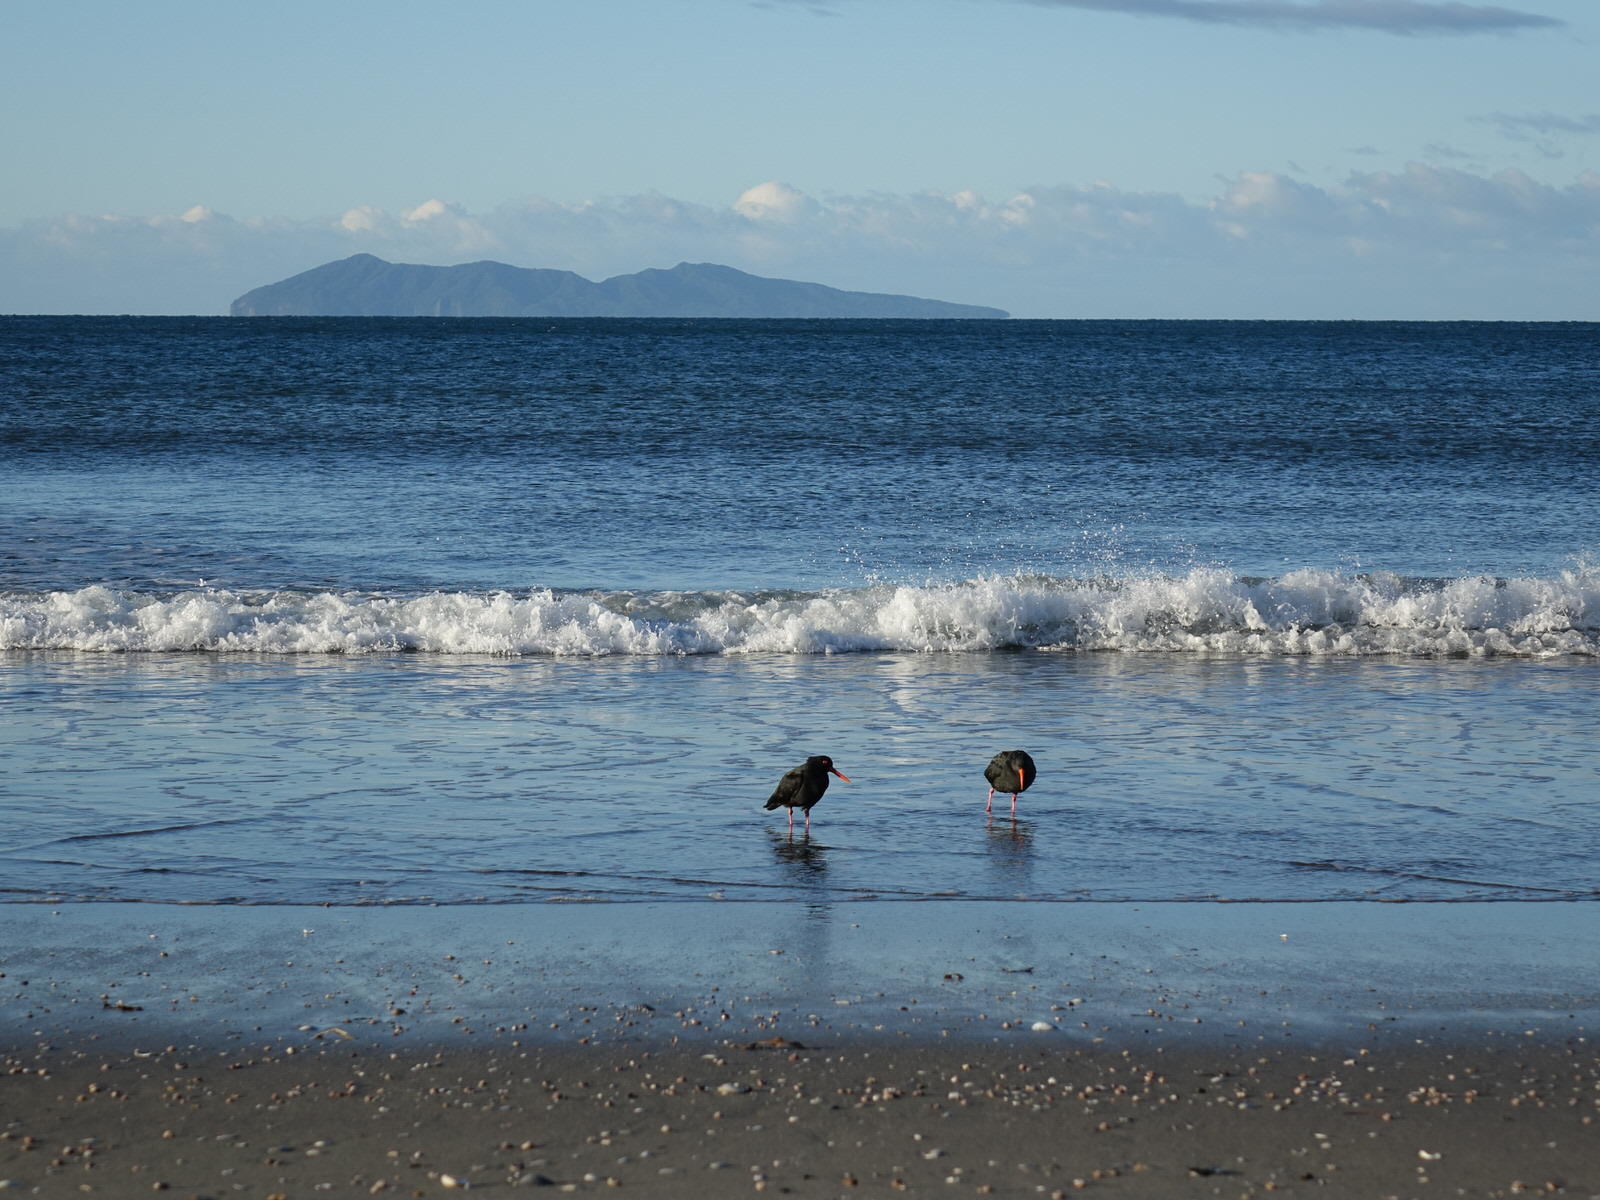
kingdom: Animalia
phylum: Chordata
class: Aves
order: Charadriiformes
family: Haematopodidae
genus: Haematopus
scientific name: Haematopus unicolor
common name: Variable oystercatcher
